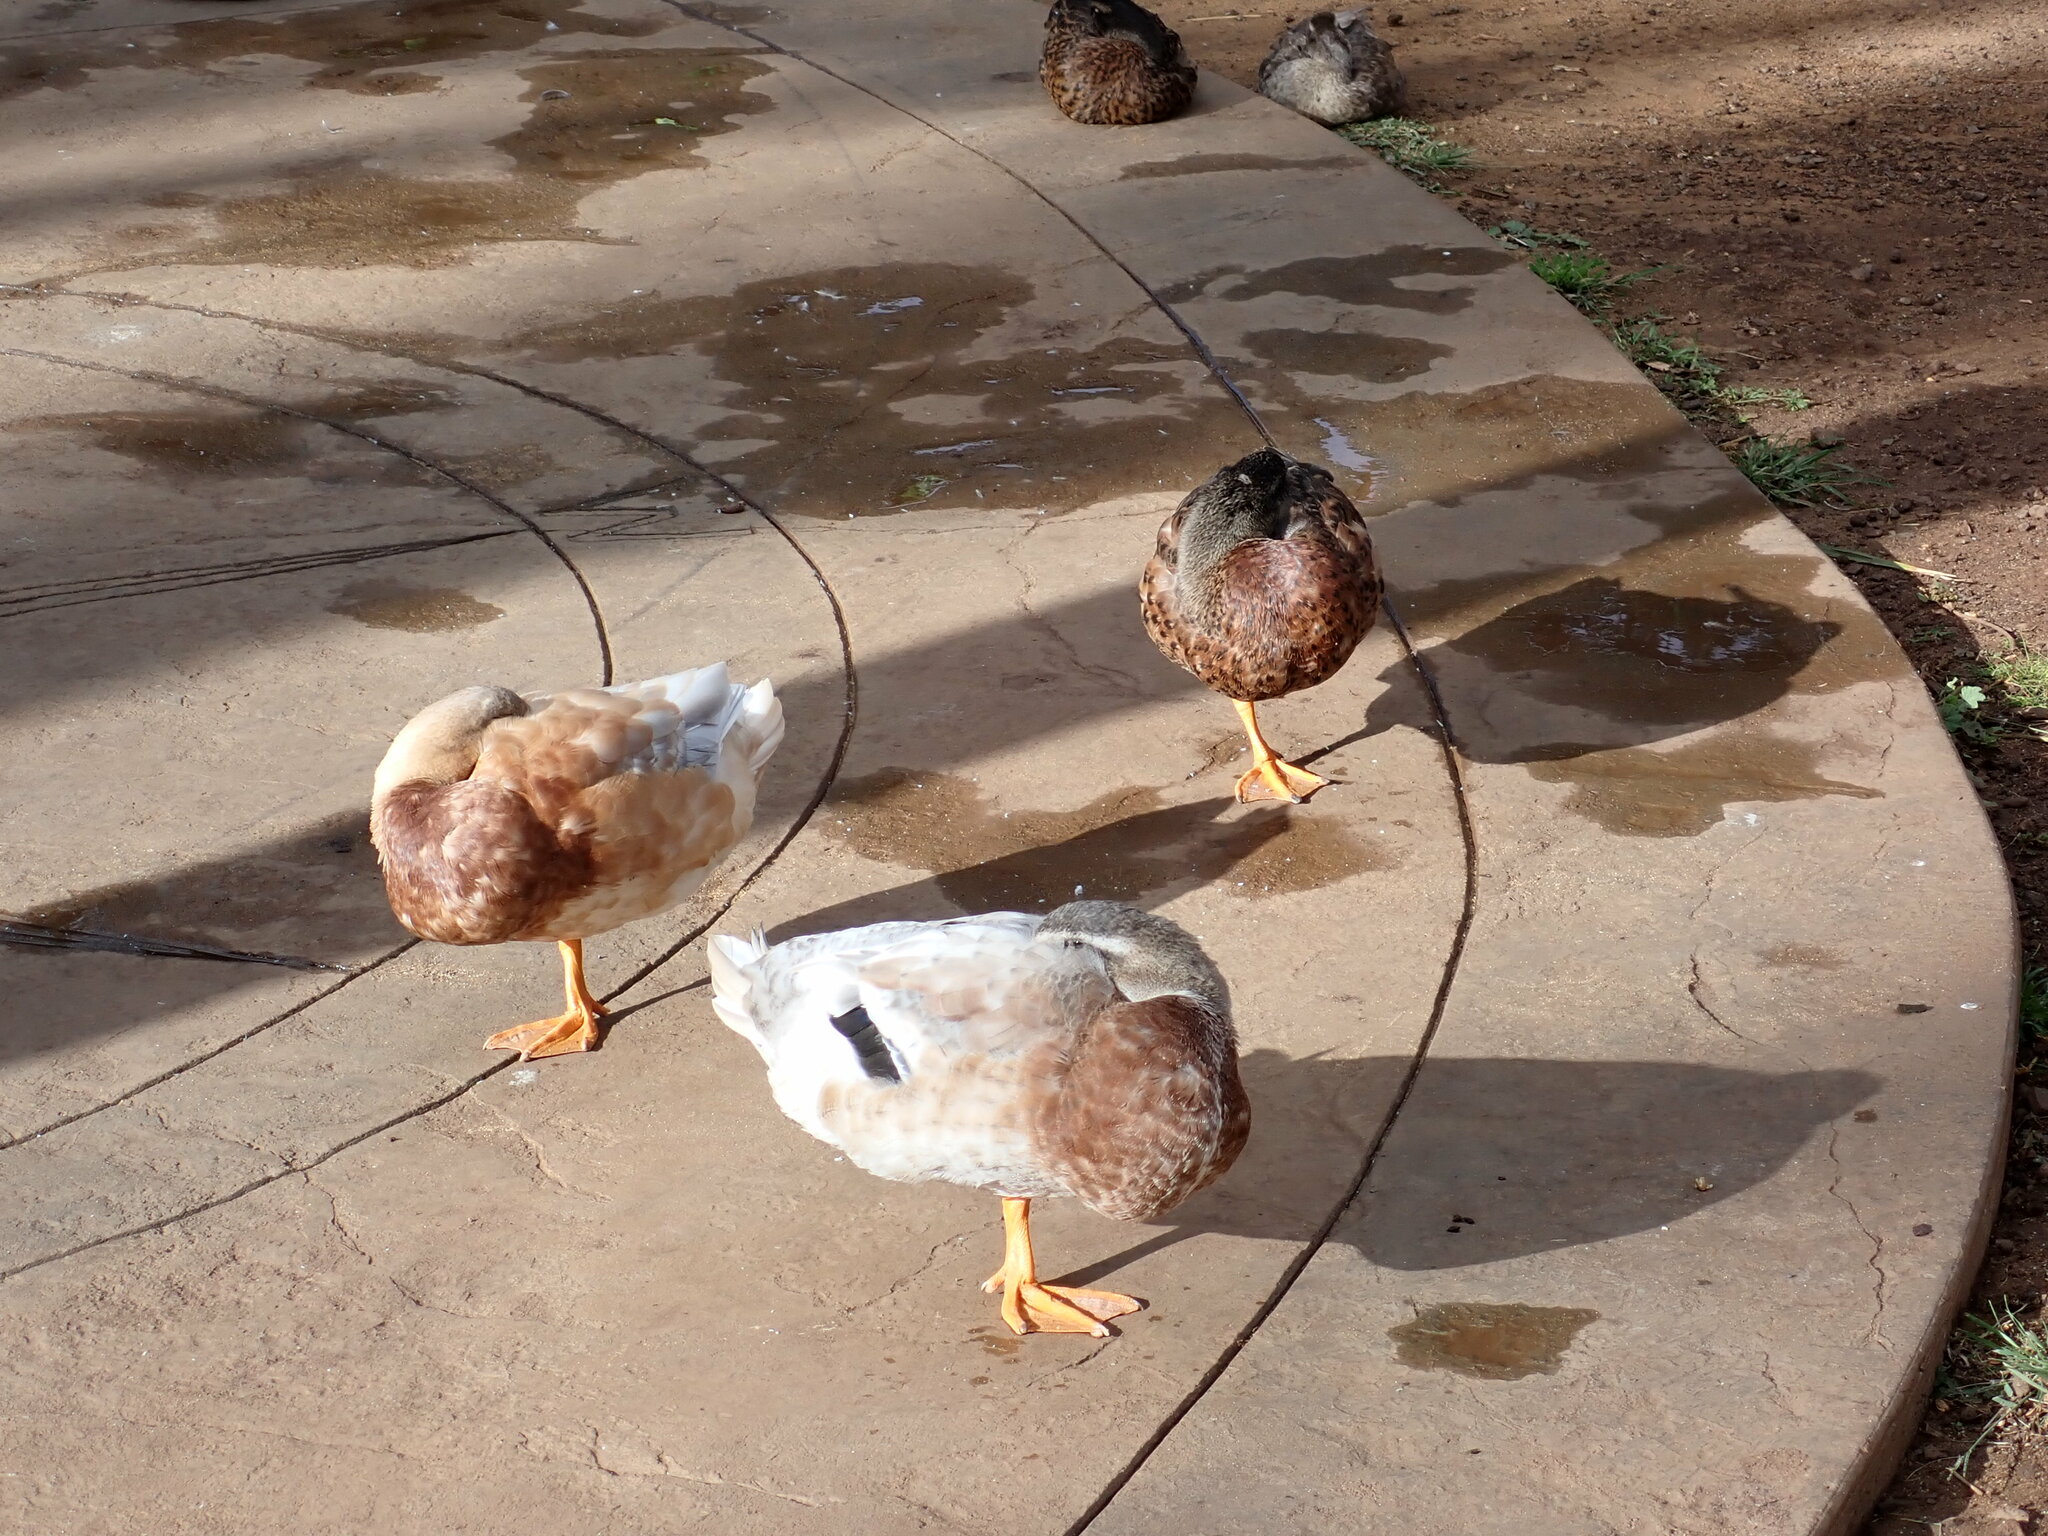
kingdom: Animalia
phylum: Chordata
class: Aves
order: Anseriformes
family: Anatidae
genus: Anas
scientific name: Anas platyrhynchos
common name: Mallard
